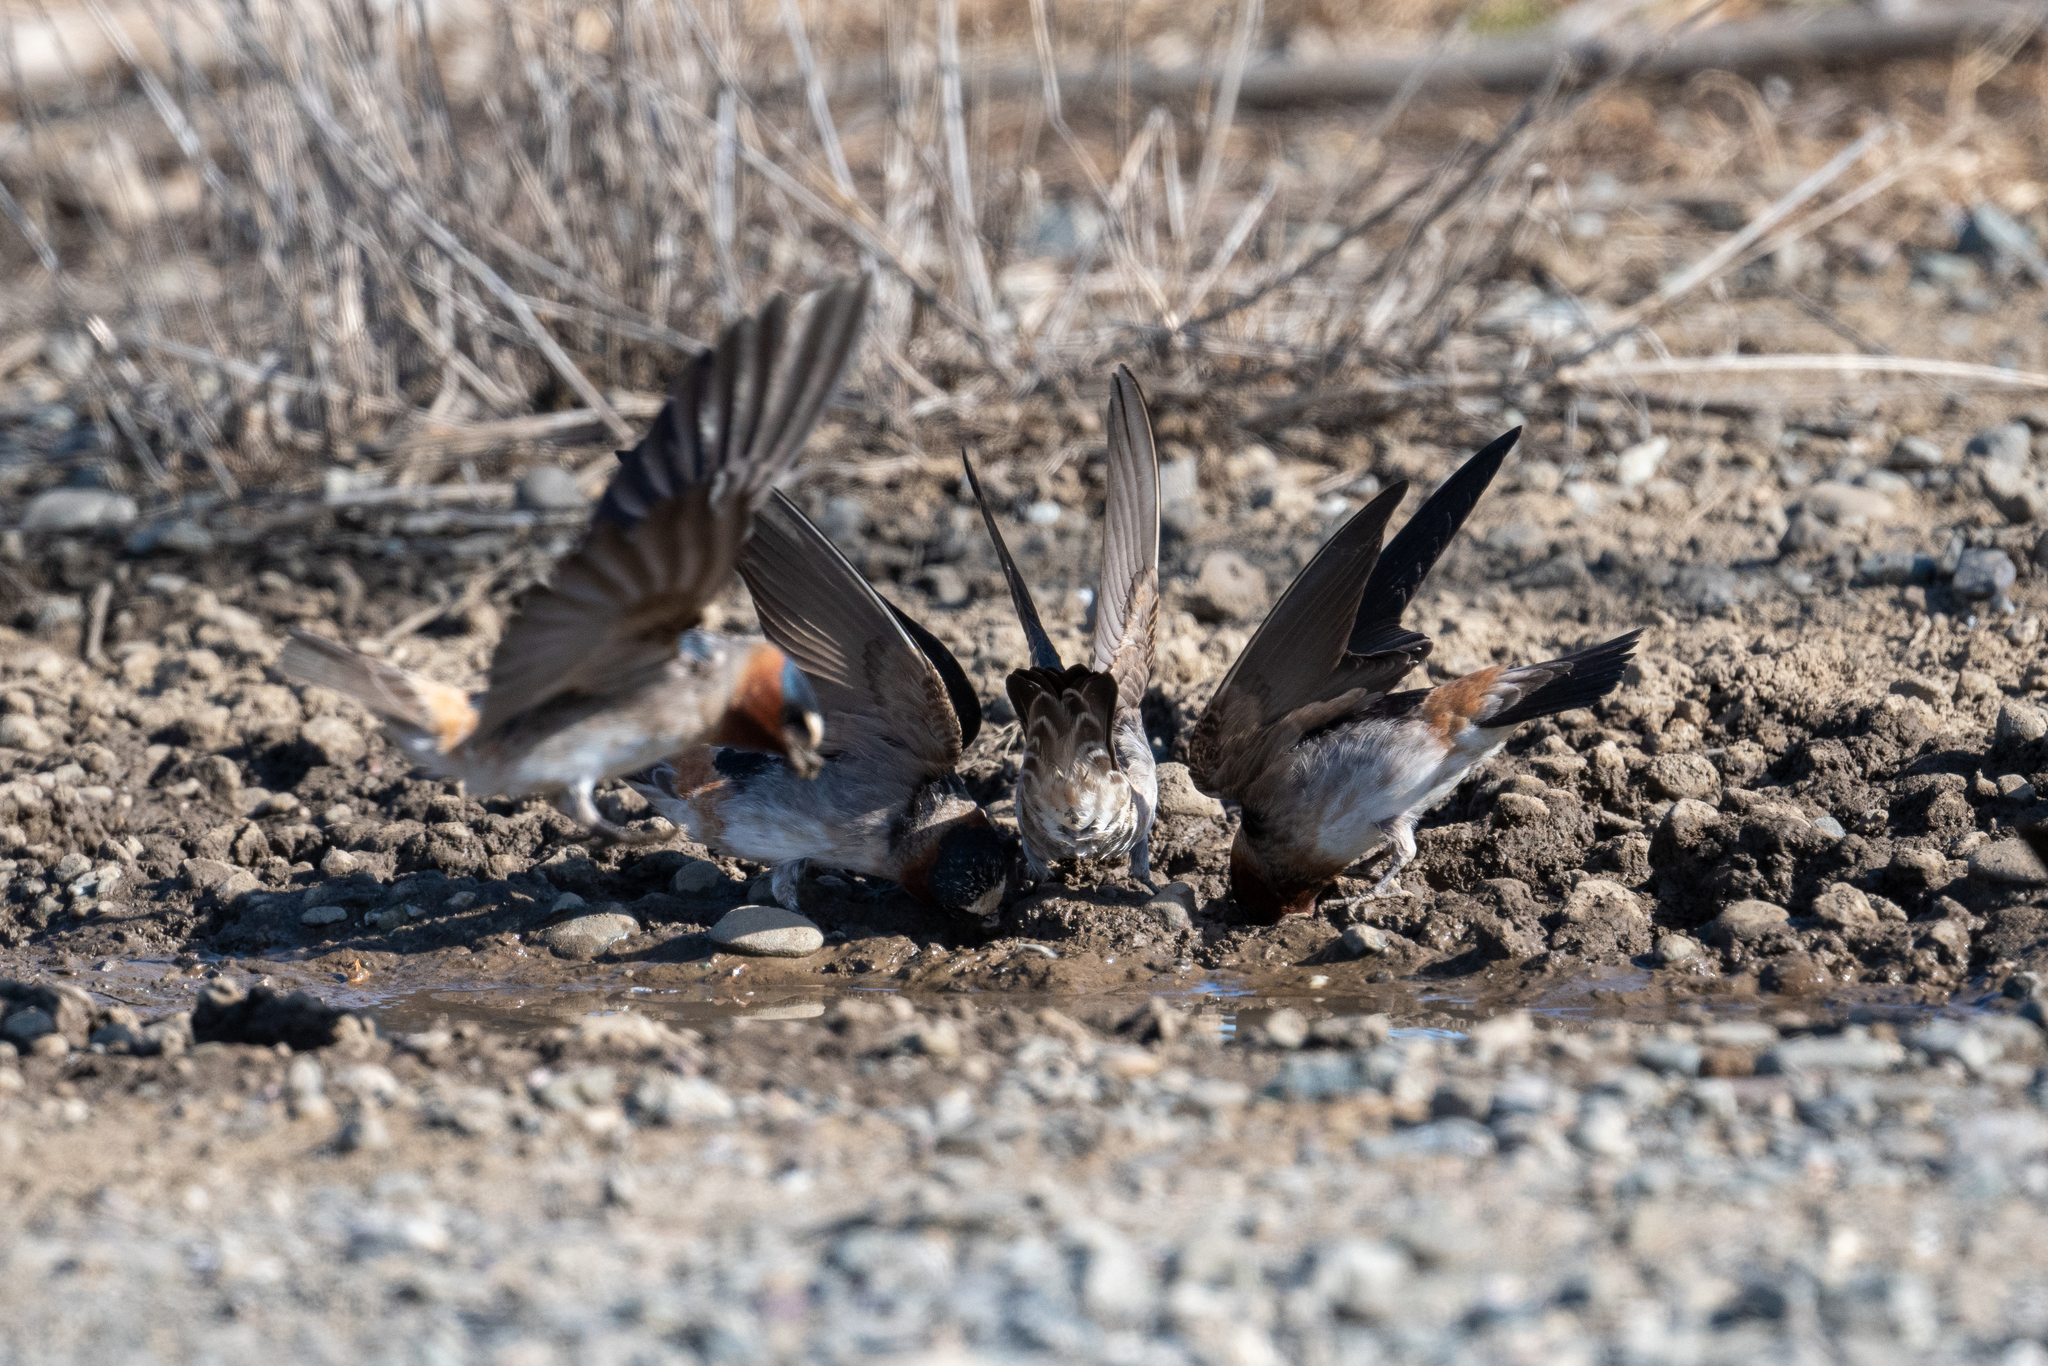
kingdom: Animalia
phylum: Chordata
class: Aves
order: Passeriformes
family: Hirundinidae
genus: Petrochelidon
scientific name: Petrochelidon pyrrhonota
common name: American cliff swallow
